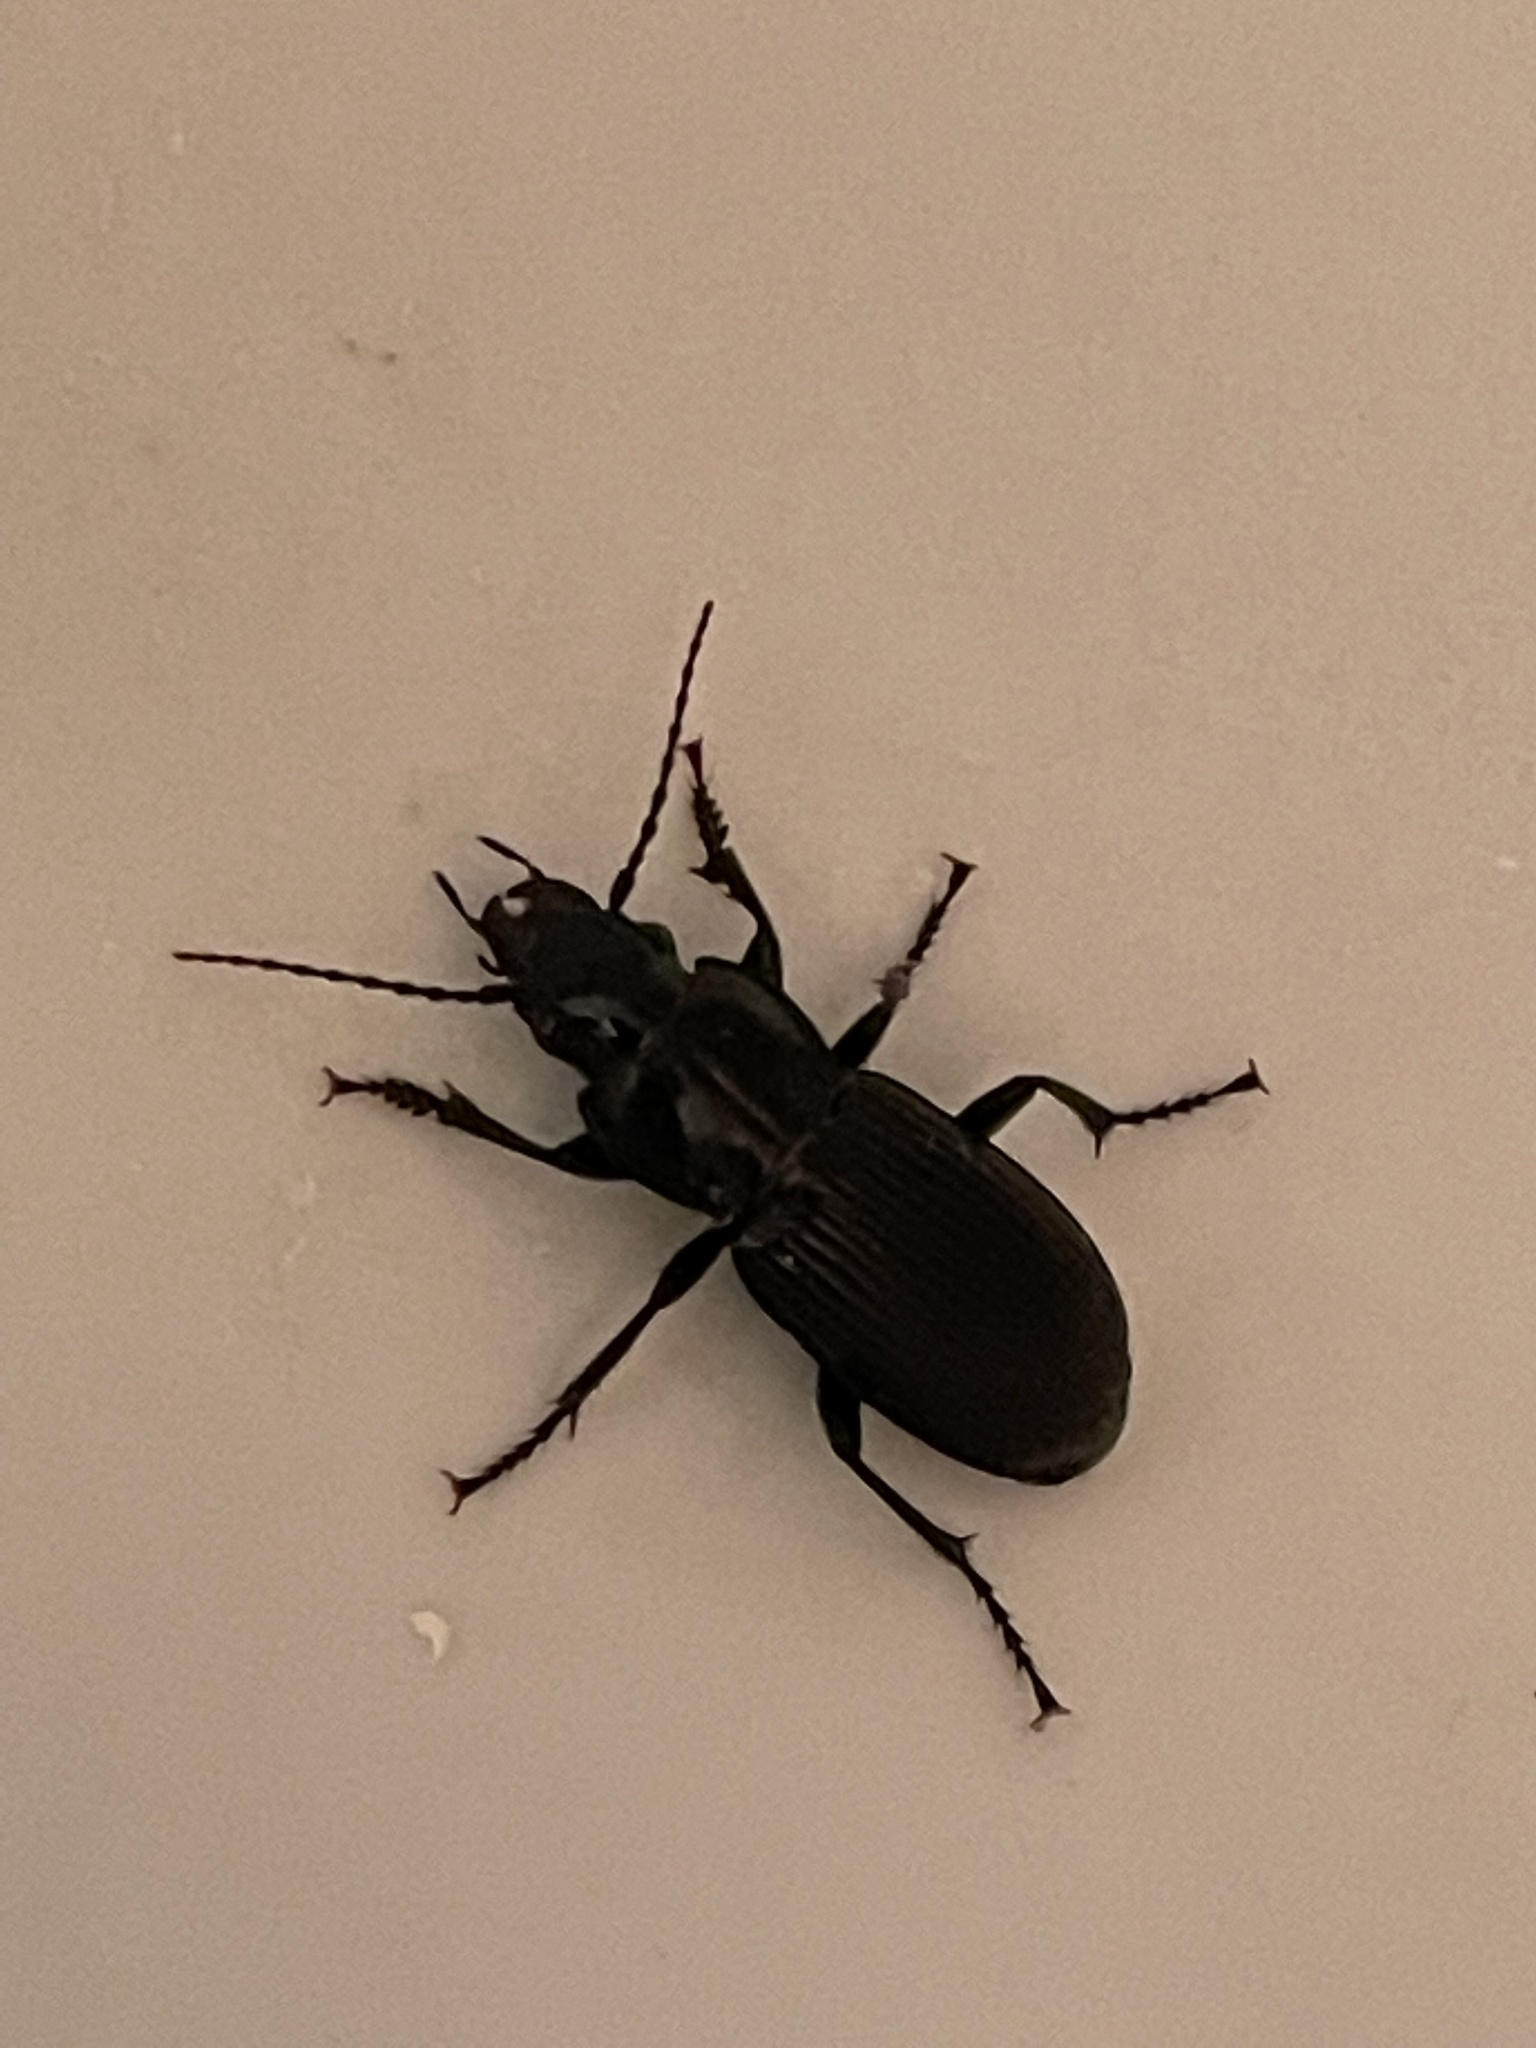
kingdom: Animalia
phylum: Arthropoda
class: Insecta
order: Coleoptera
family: Carabidae
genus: Pterostichus
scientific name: Pterostichus melanarius
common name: European dark harp ground beetle
